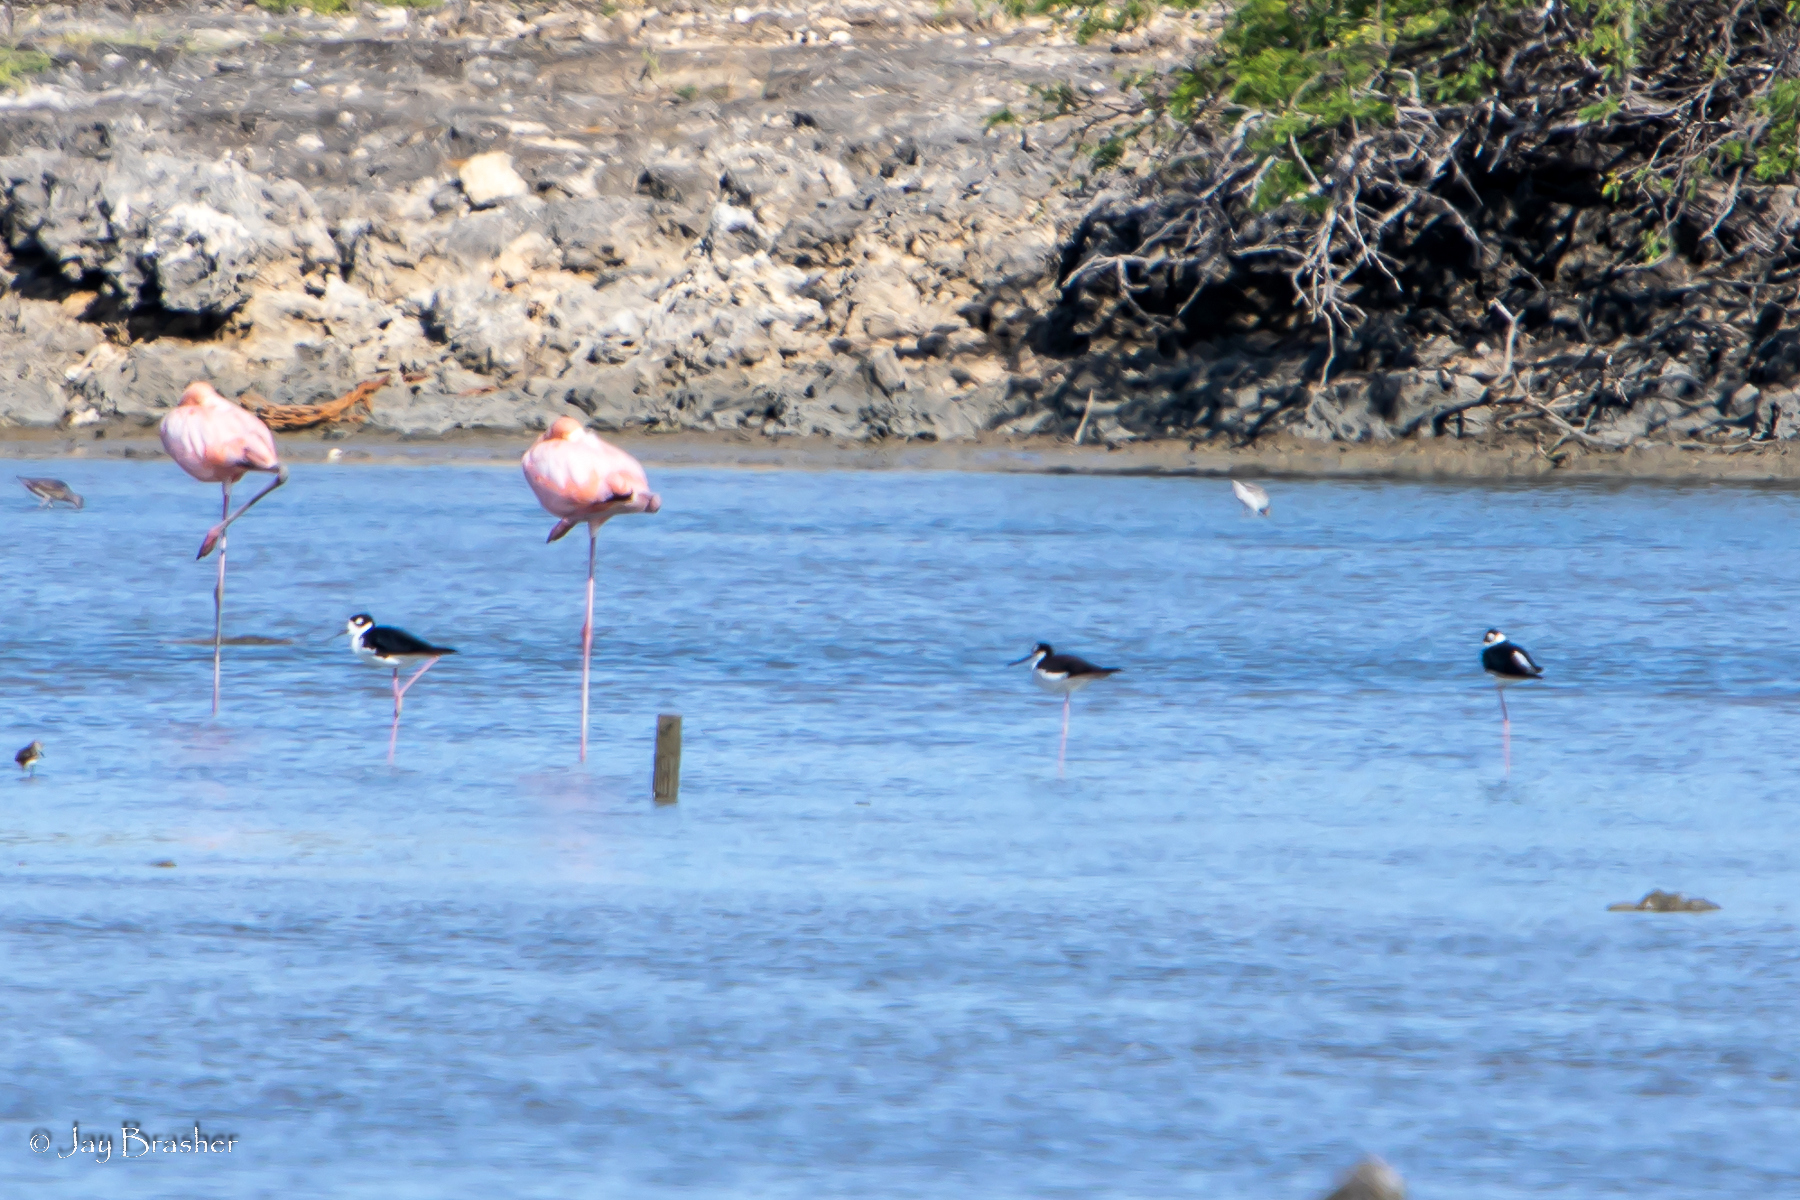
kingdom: Animalia
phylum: Chordata
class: Aves
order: Charadriiformes
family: Recurvirostridae
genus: Himantopus
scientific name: Himantopus mexicanus
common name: Black-necked stilt
